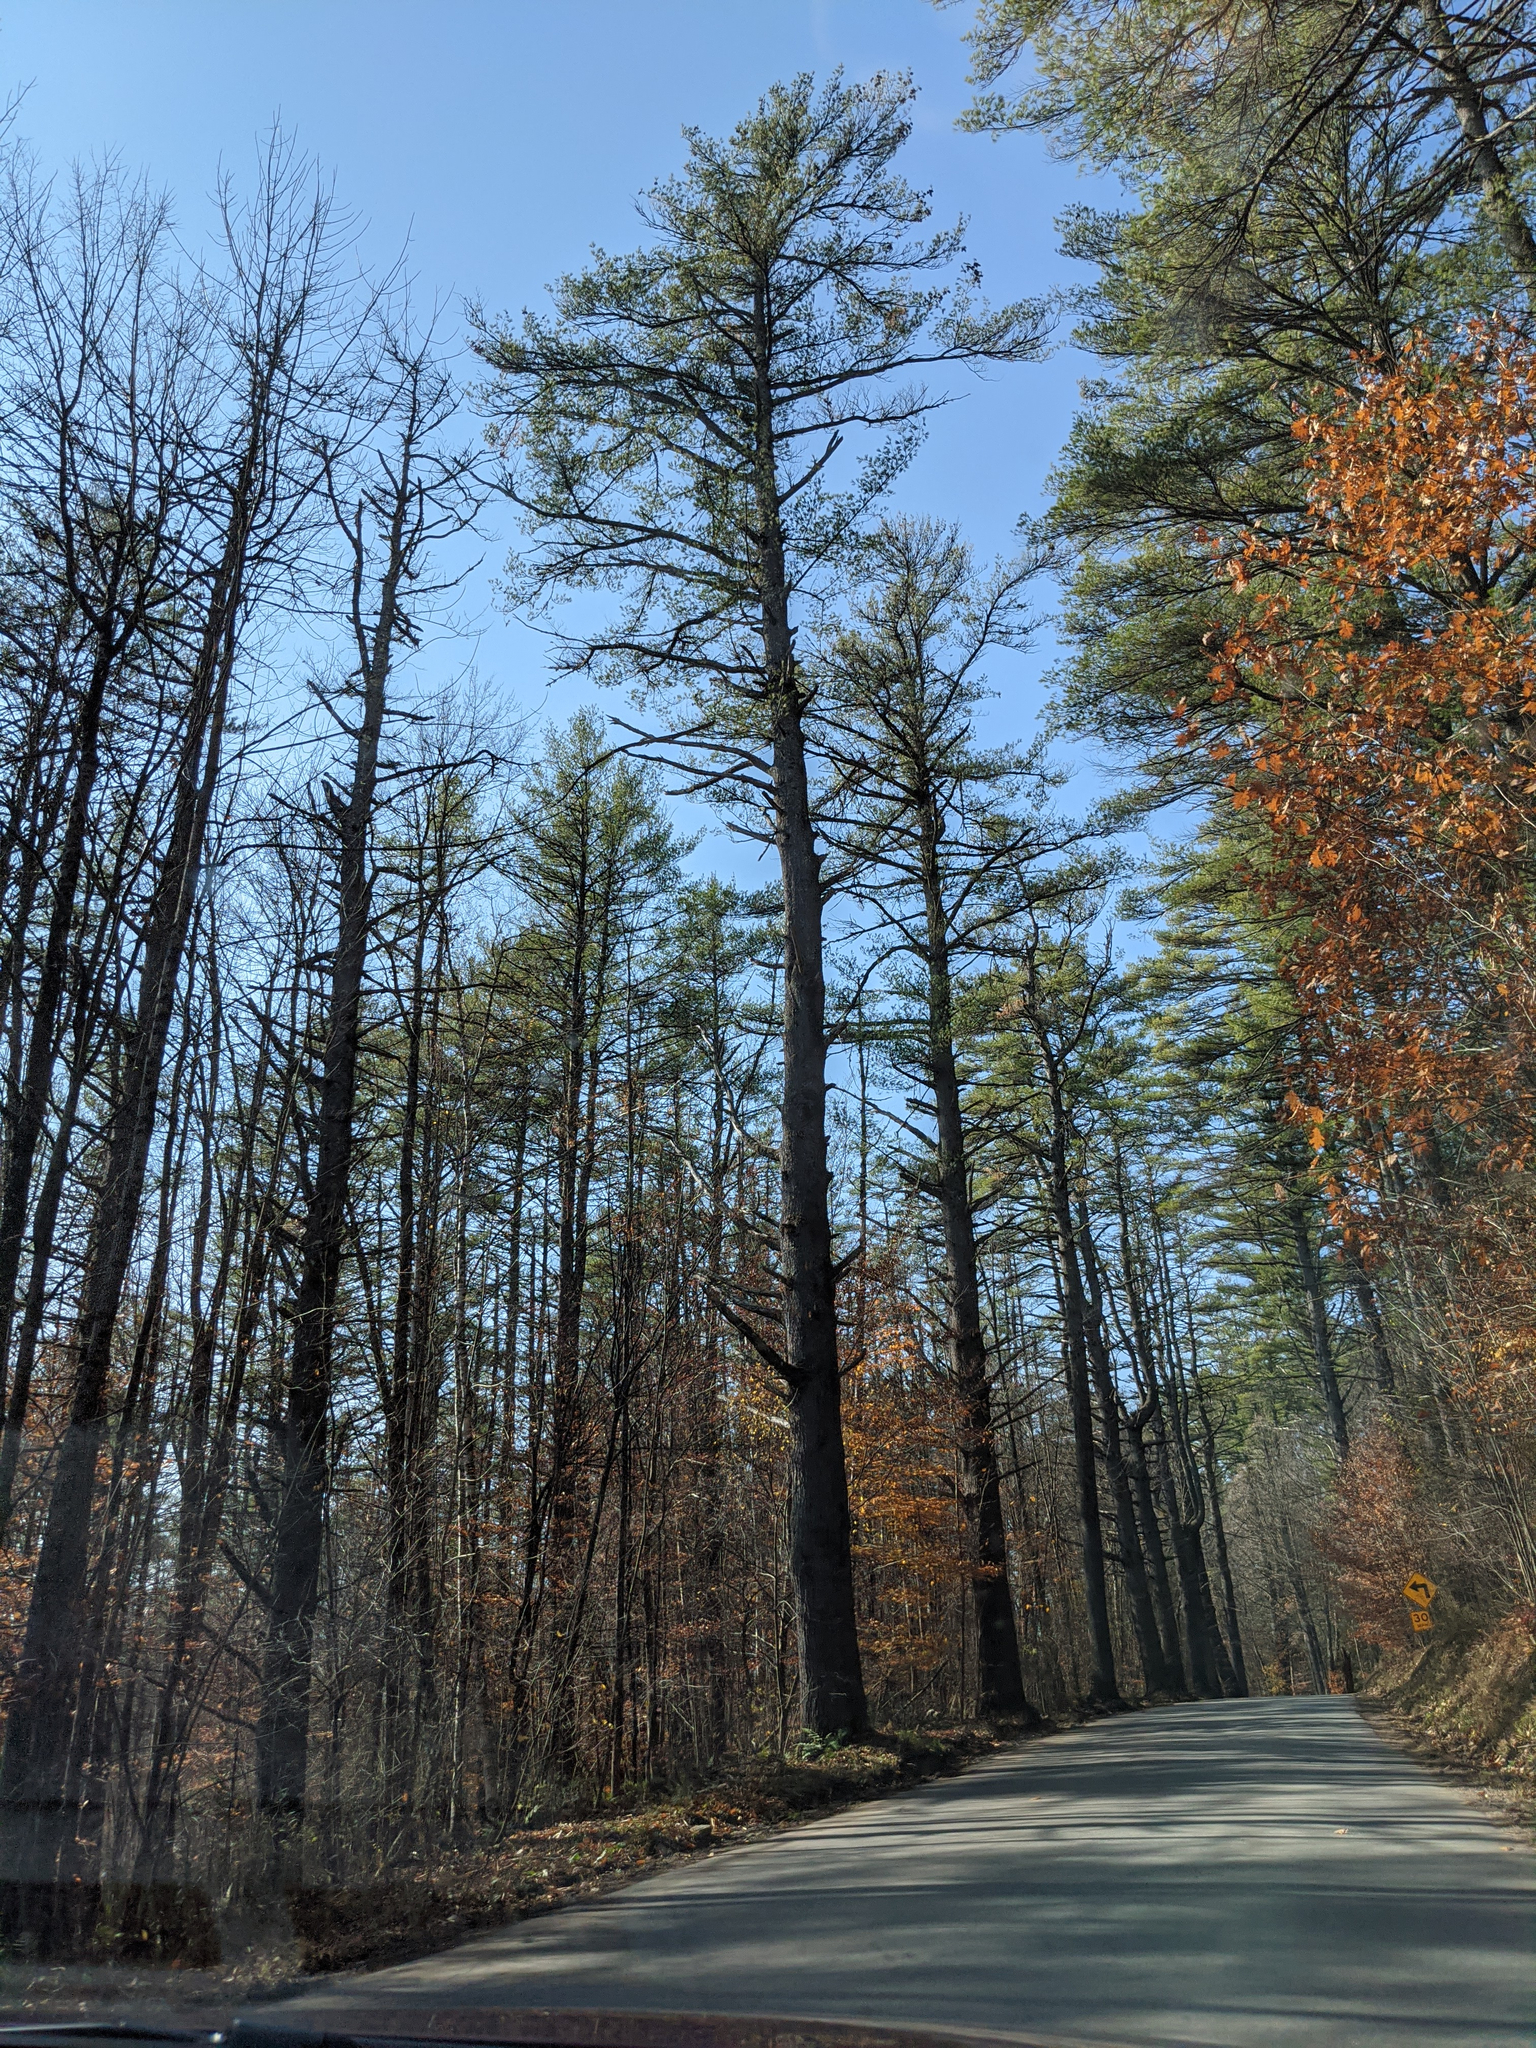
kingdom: Plantae
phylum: Tracheophyta
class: Pinopsida
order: Pinales
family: Pinaceae
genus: Pinus
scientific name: Pinus strobus
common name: Weymouth pine
